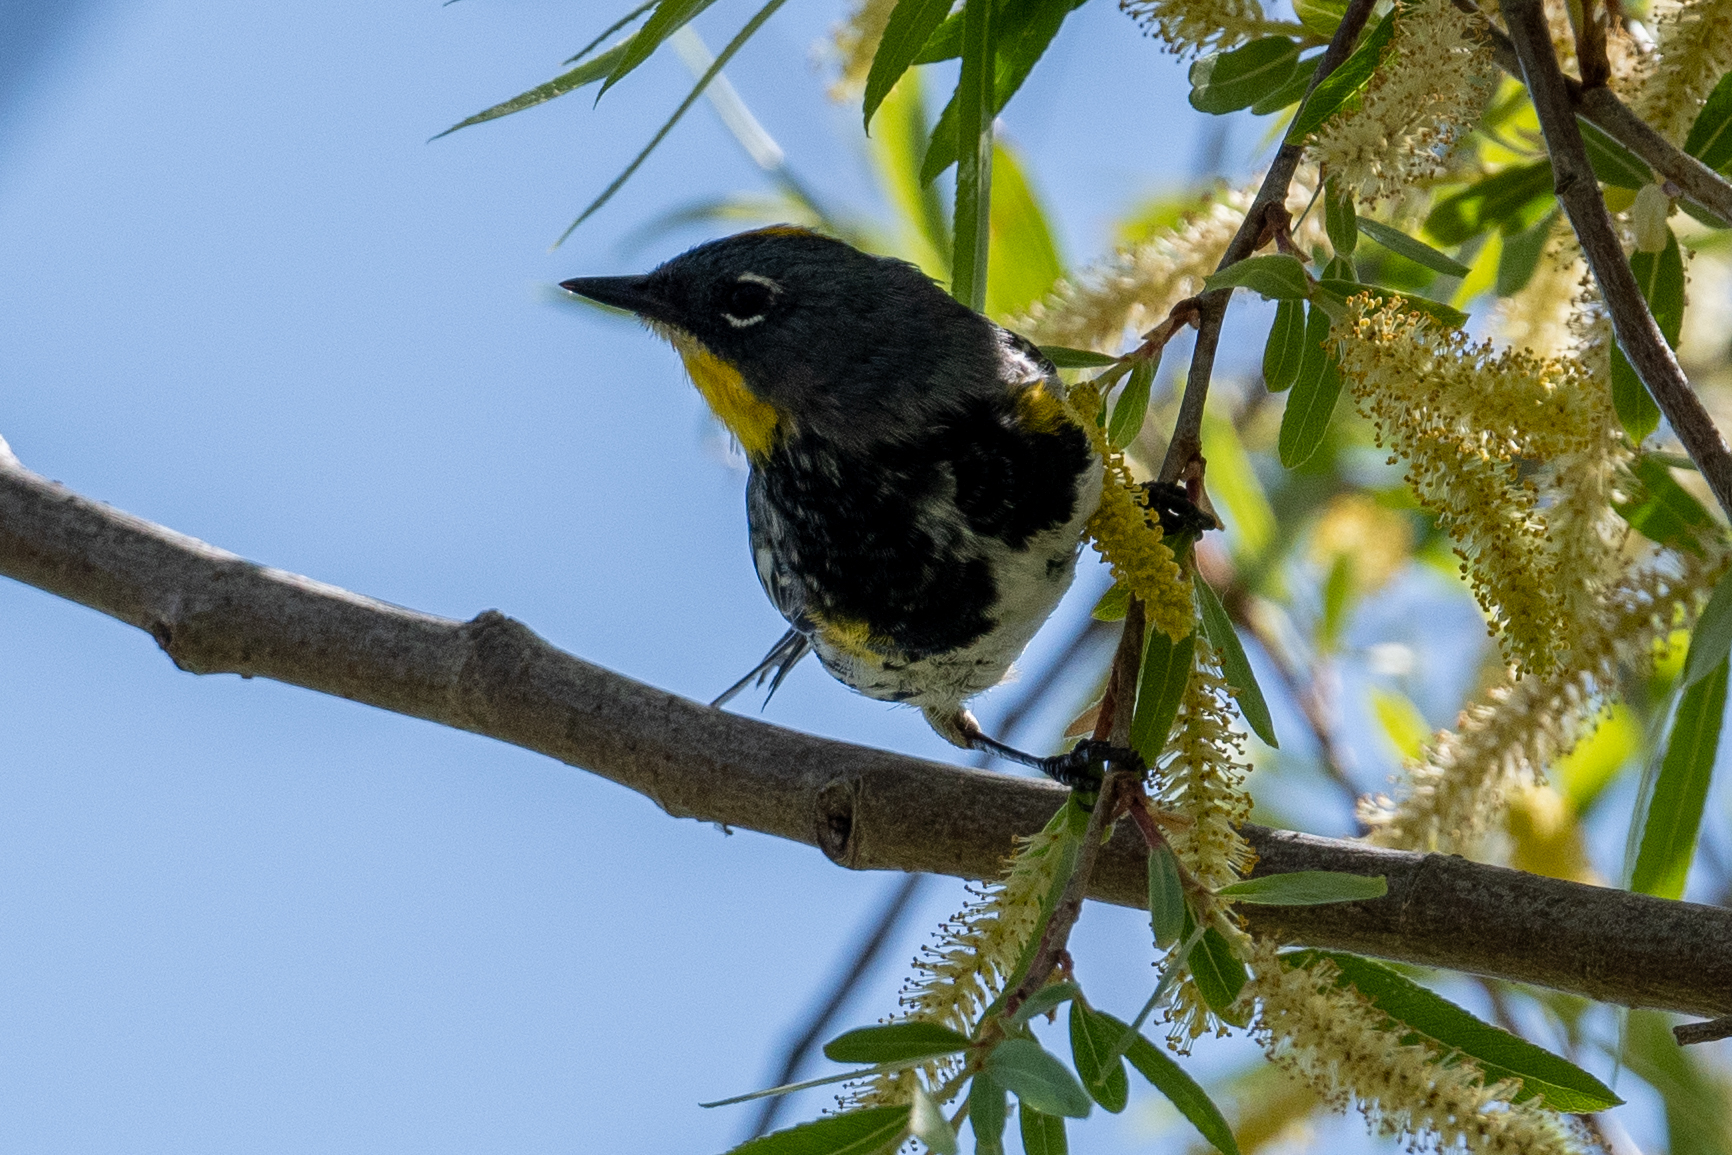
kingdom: Animalia
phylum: Chordata
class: Aves
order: Passeriformes
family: Parulidae
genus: Setophaga
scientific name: Setophaga coronata
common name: Myrtle warbler
